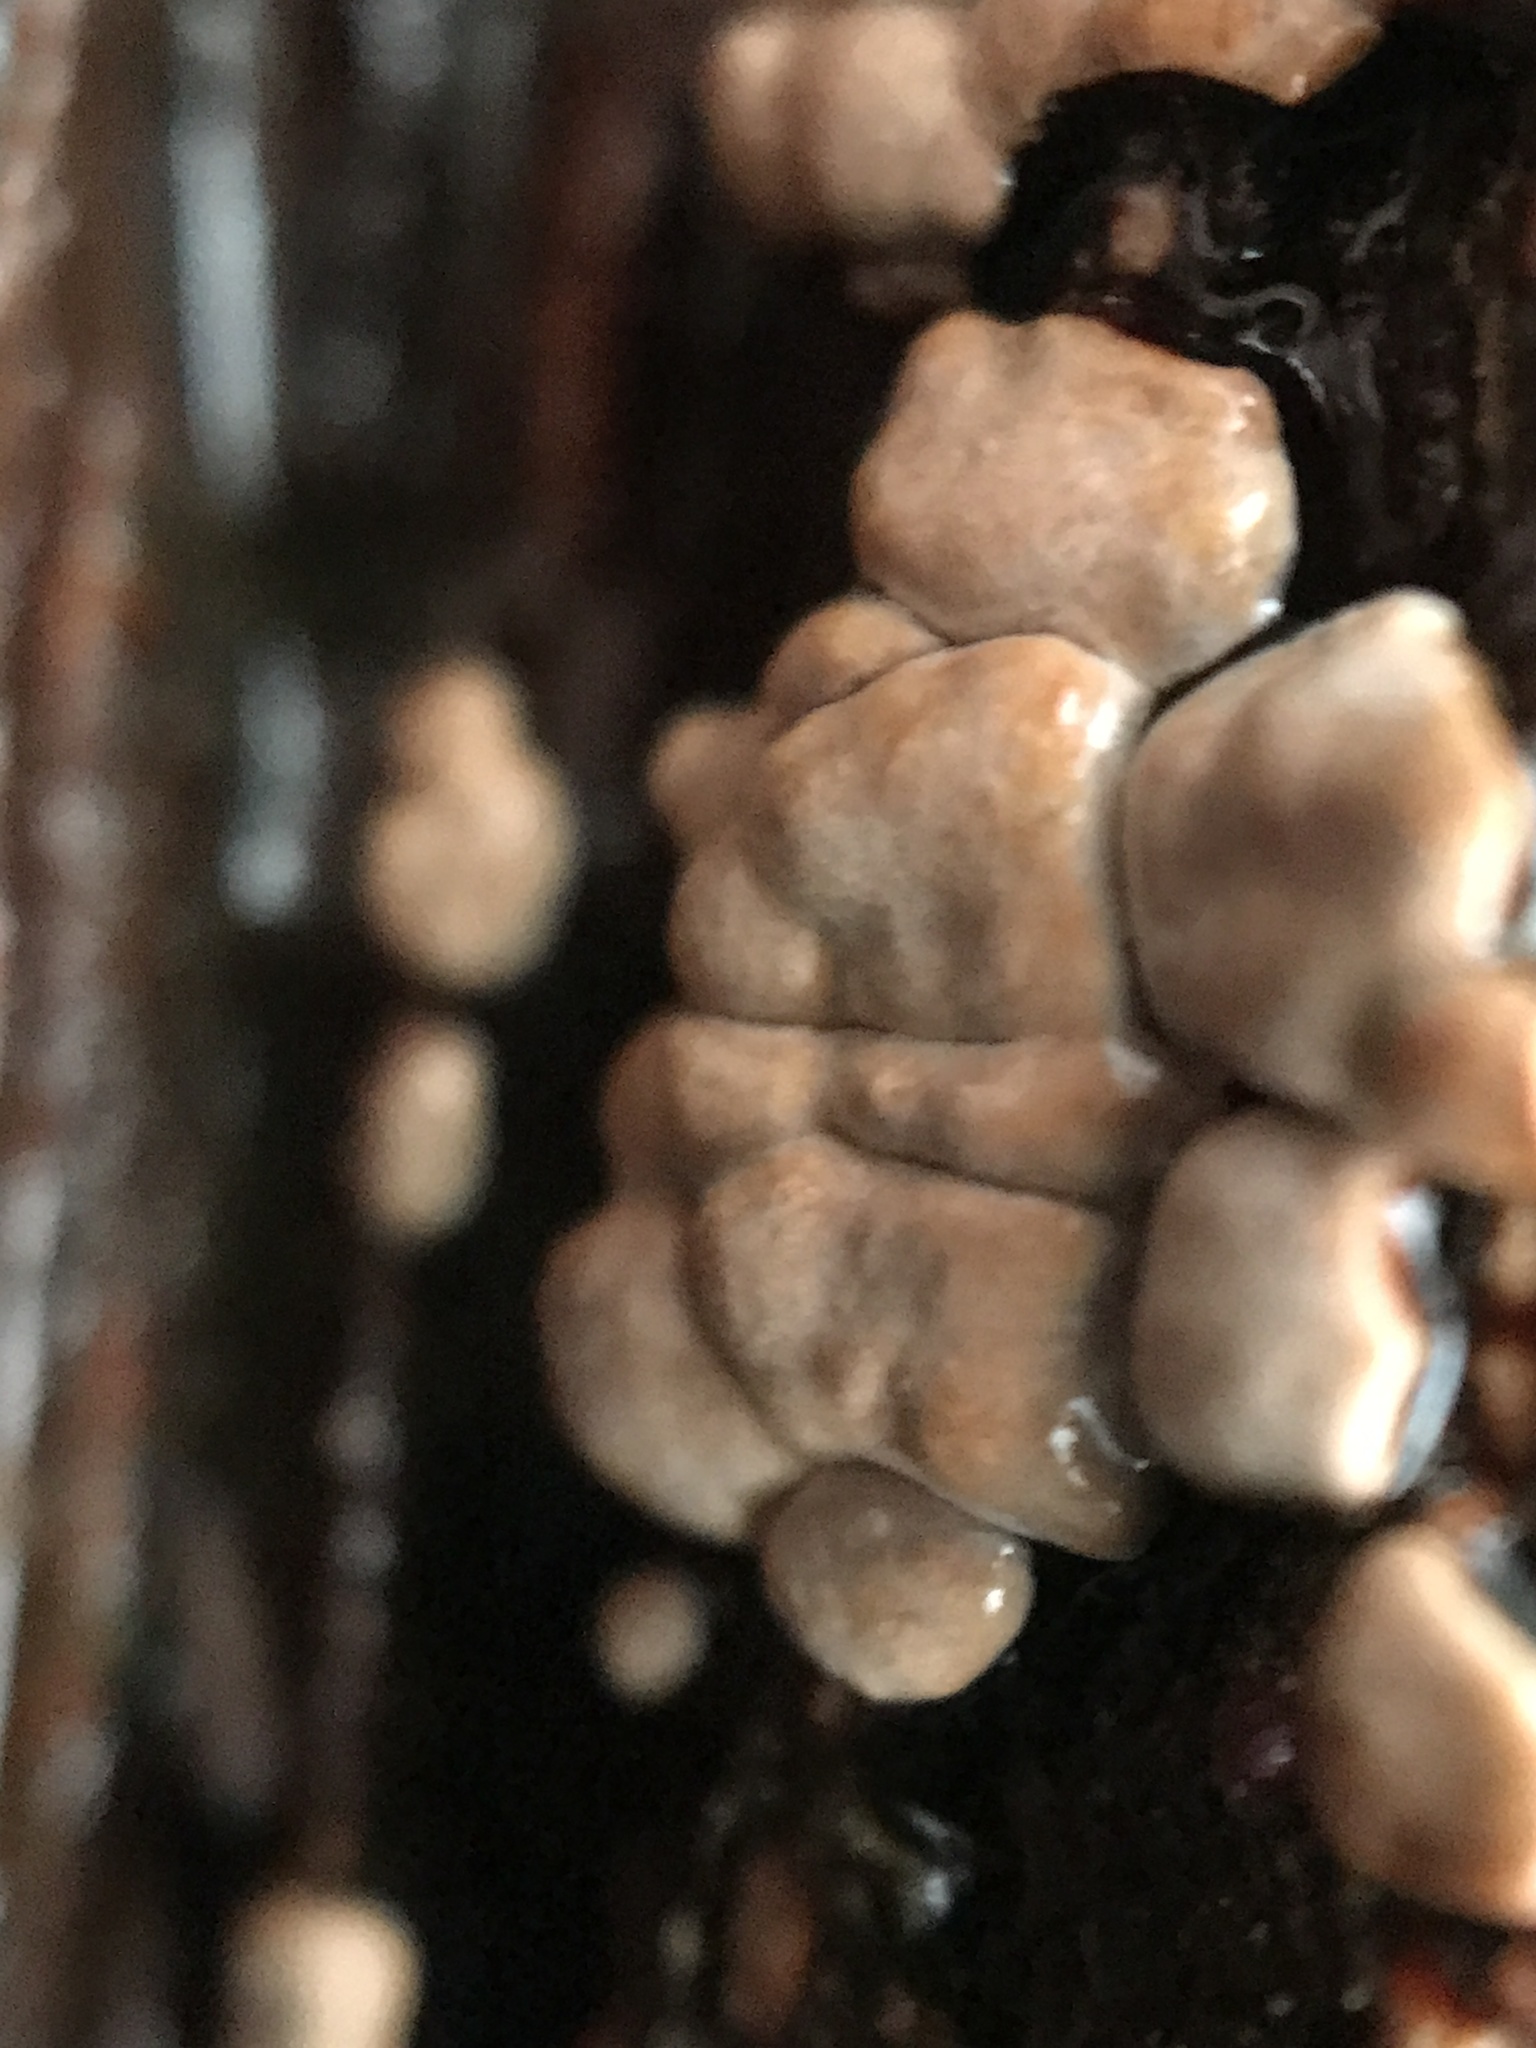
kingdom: Fungi
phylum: Basidiomycota
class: Agaricomycetes
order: Russulales
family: Stereaceae
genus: Xylobolus
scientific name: Xylobolus frustulatus
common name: Ceramic parchment
